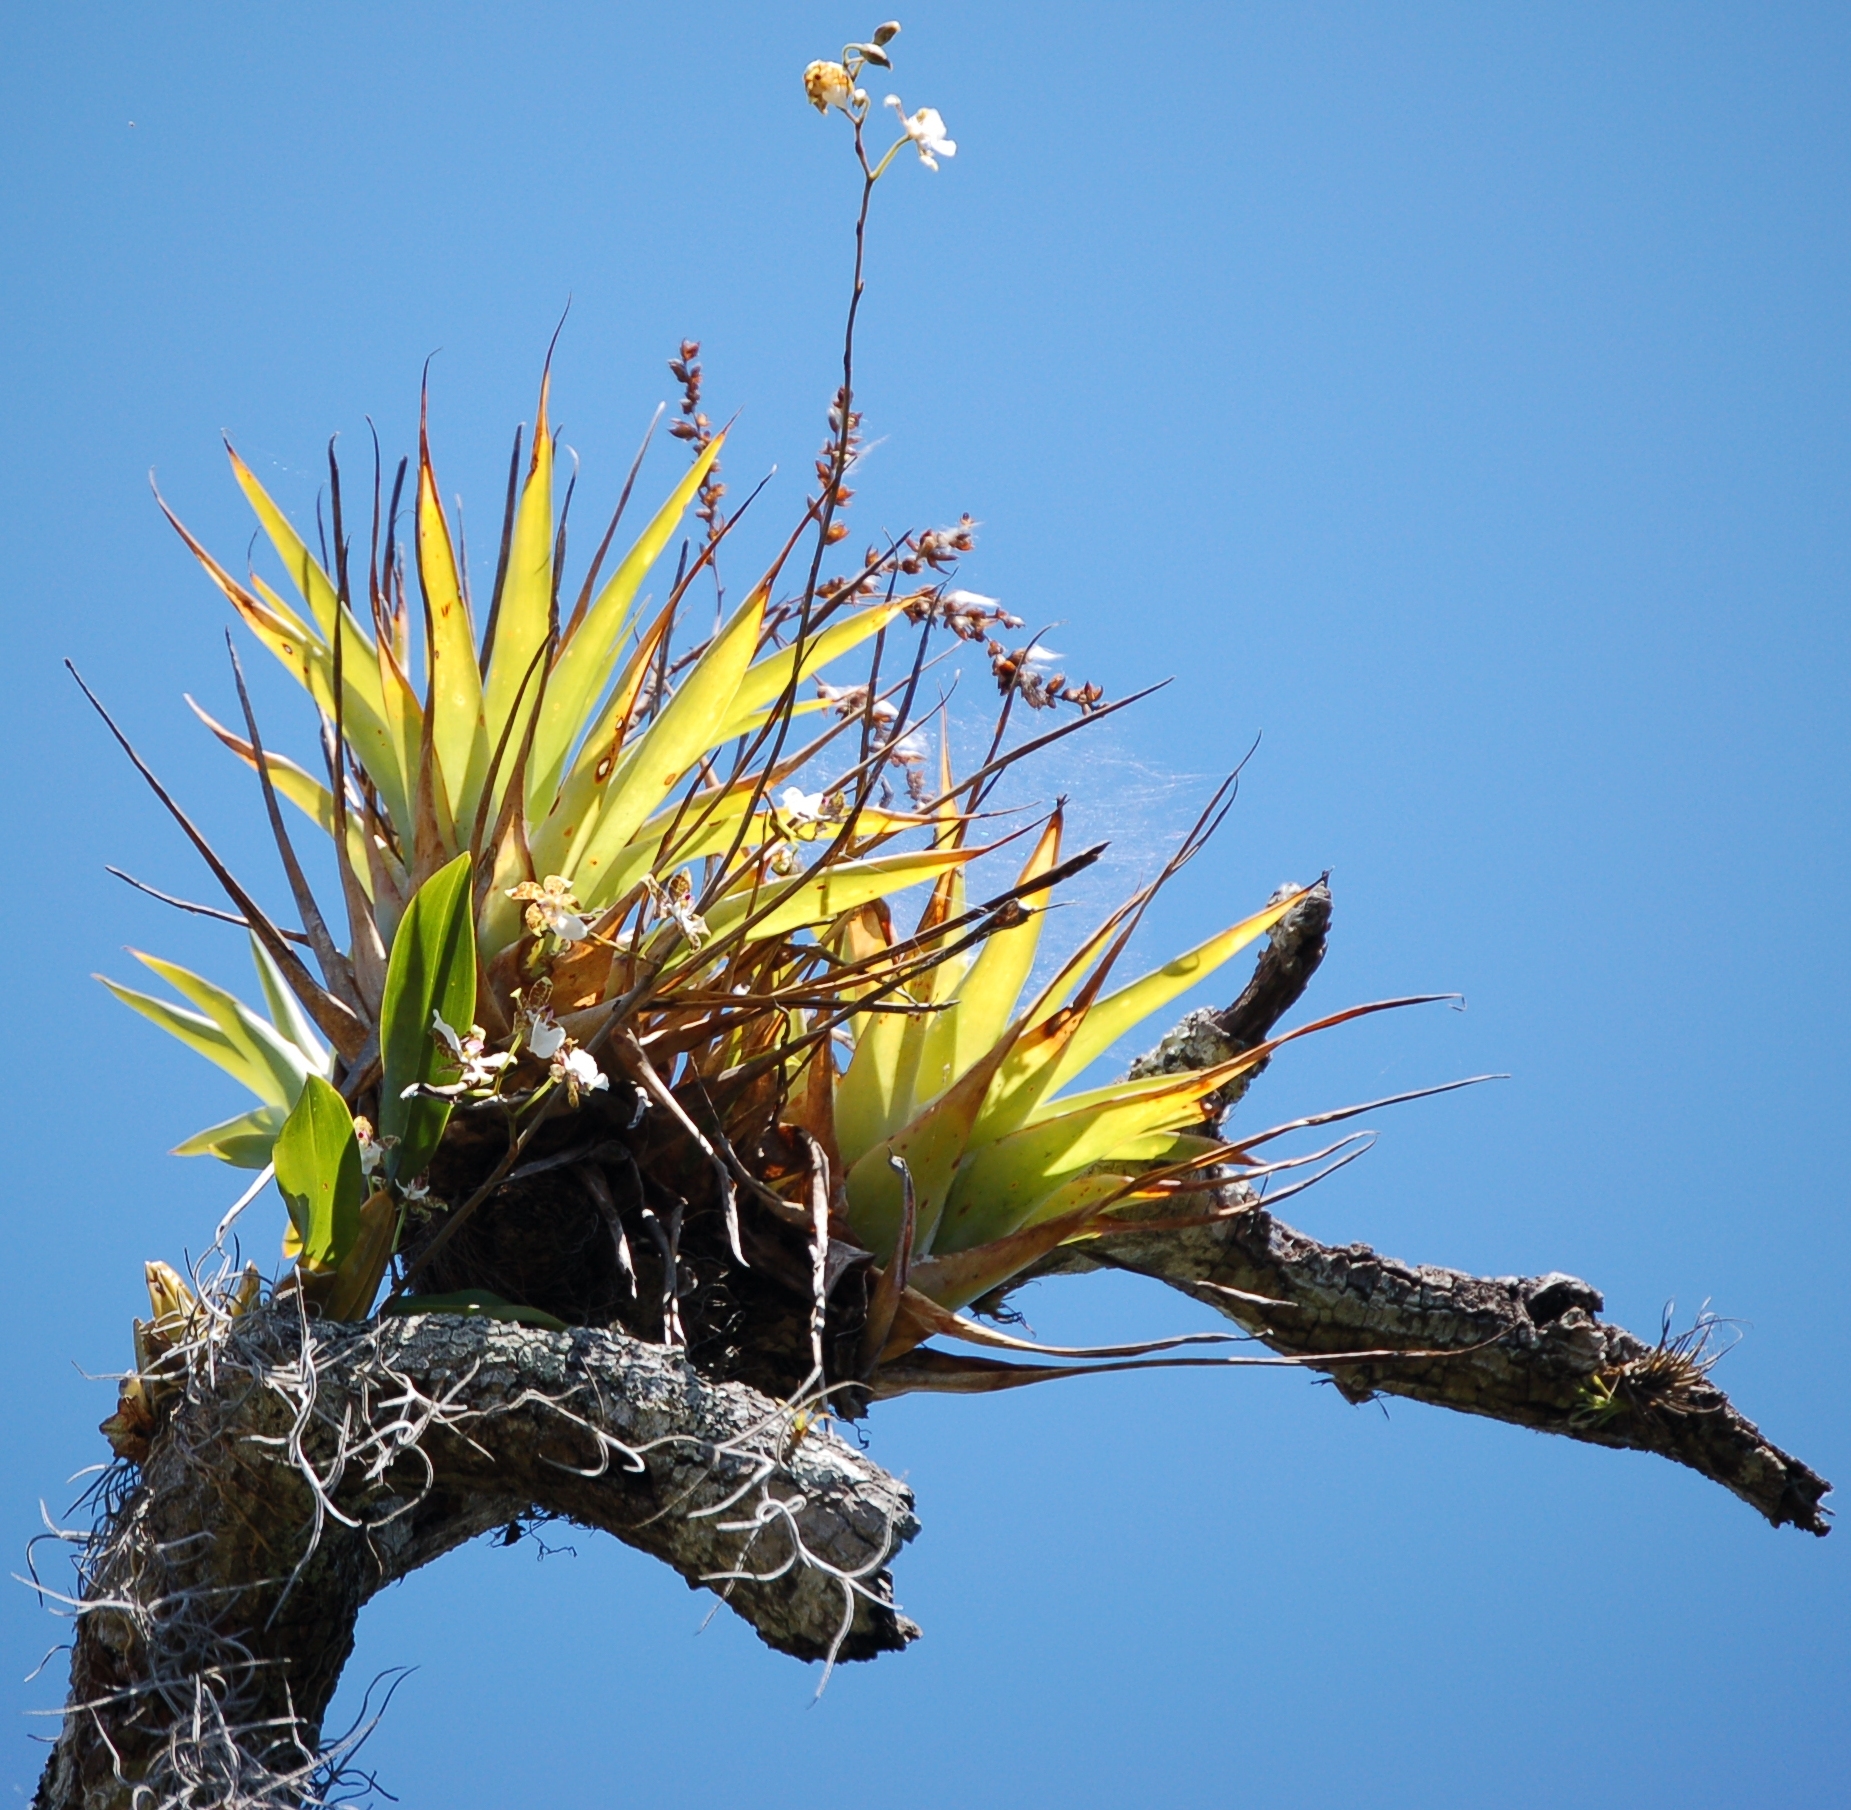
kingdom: Plantae
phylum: Tracheophyta
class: Liliopsida
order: Poales
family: Bromeliaceae
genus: Catopsis
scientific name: Catopsis berteroniana
